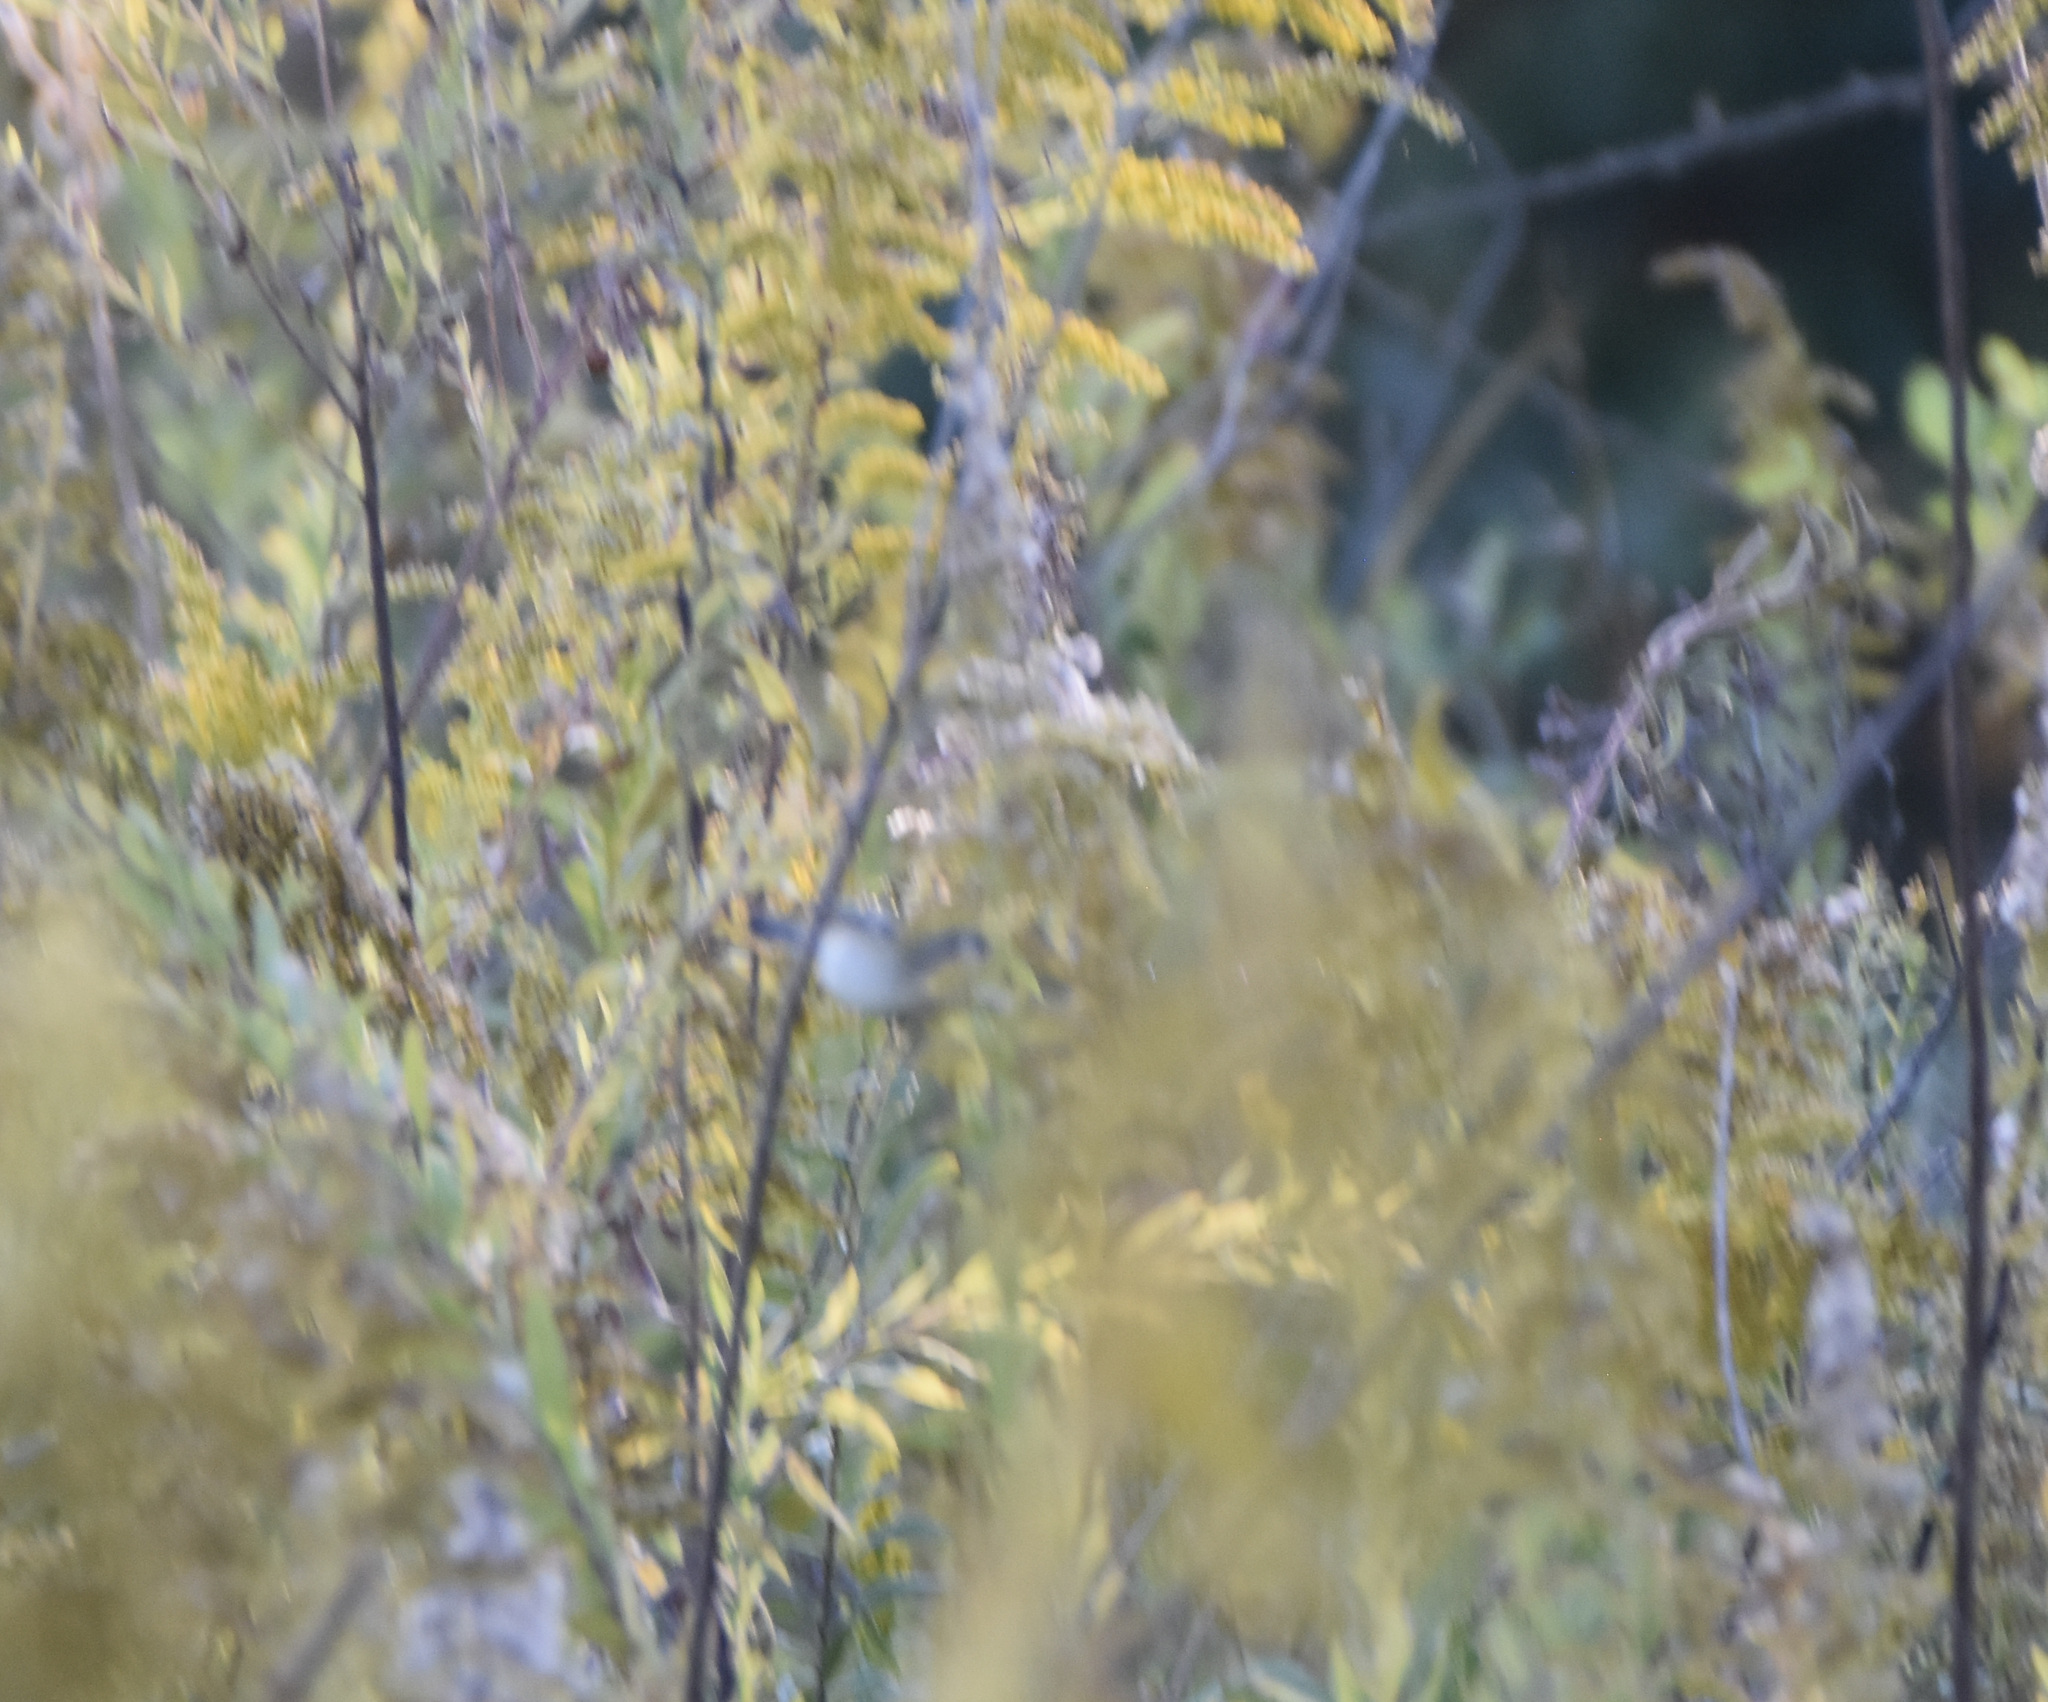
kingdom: Animalia
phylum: Chordata
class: Aves
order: Passeriformes
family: Polioptilidae
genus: Polioptila
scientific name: Polioptila caerulea
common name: Blue-gray gnatcatcher
